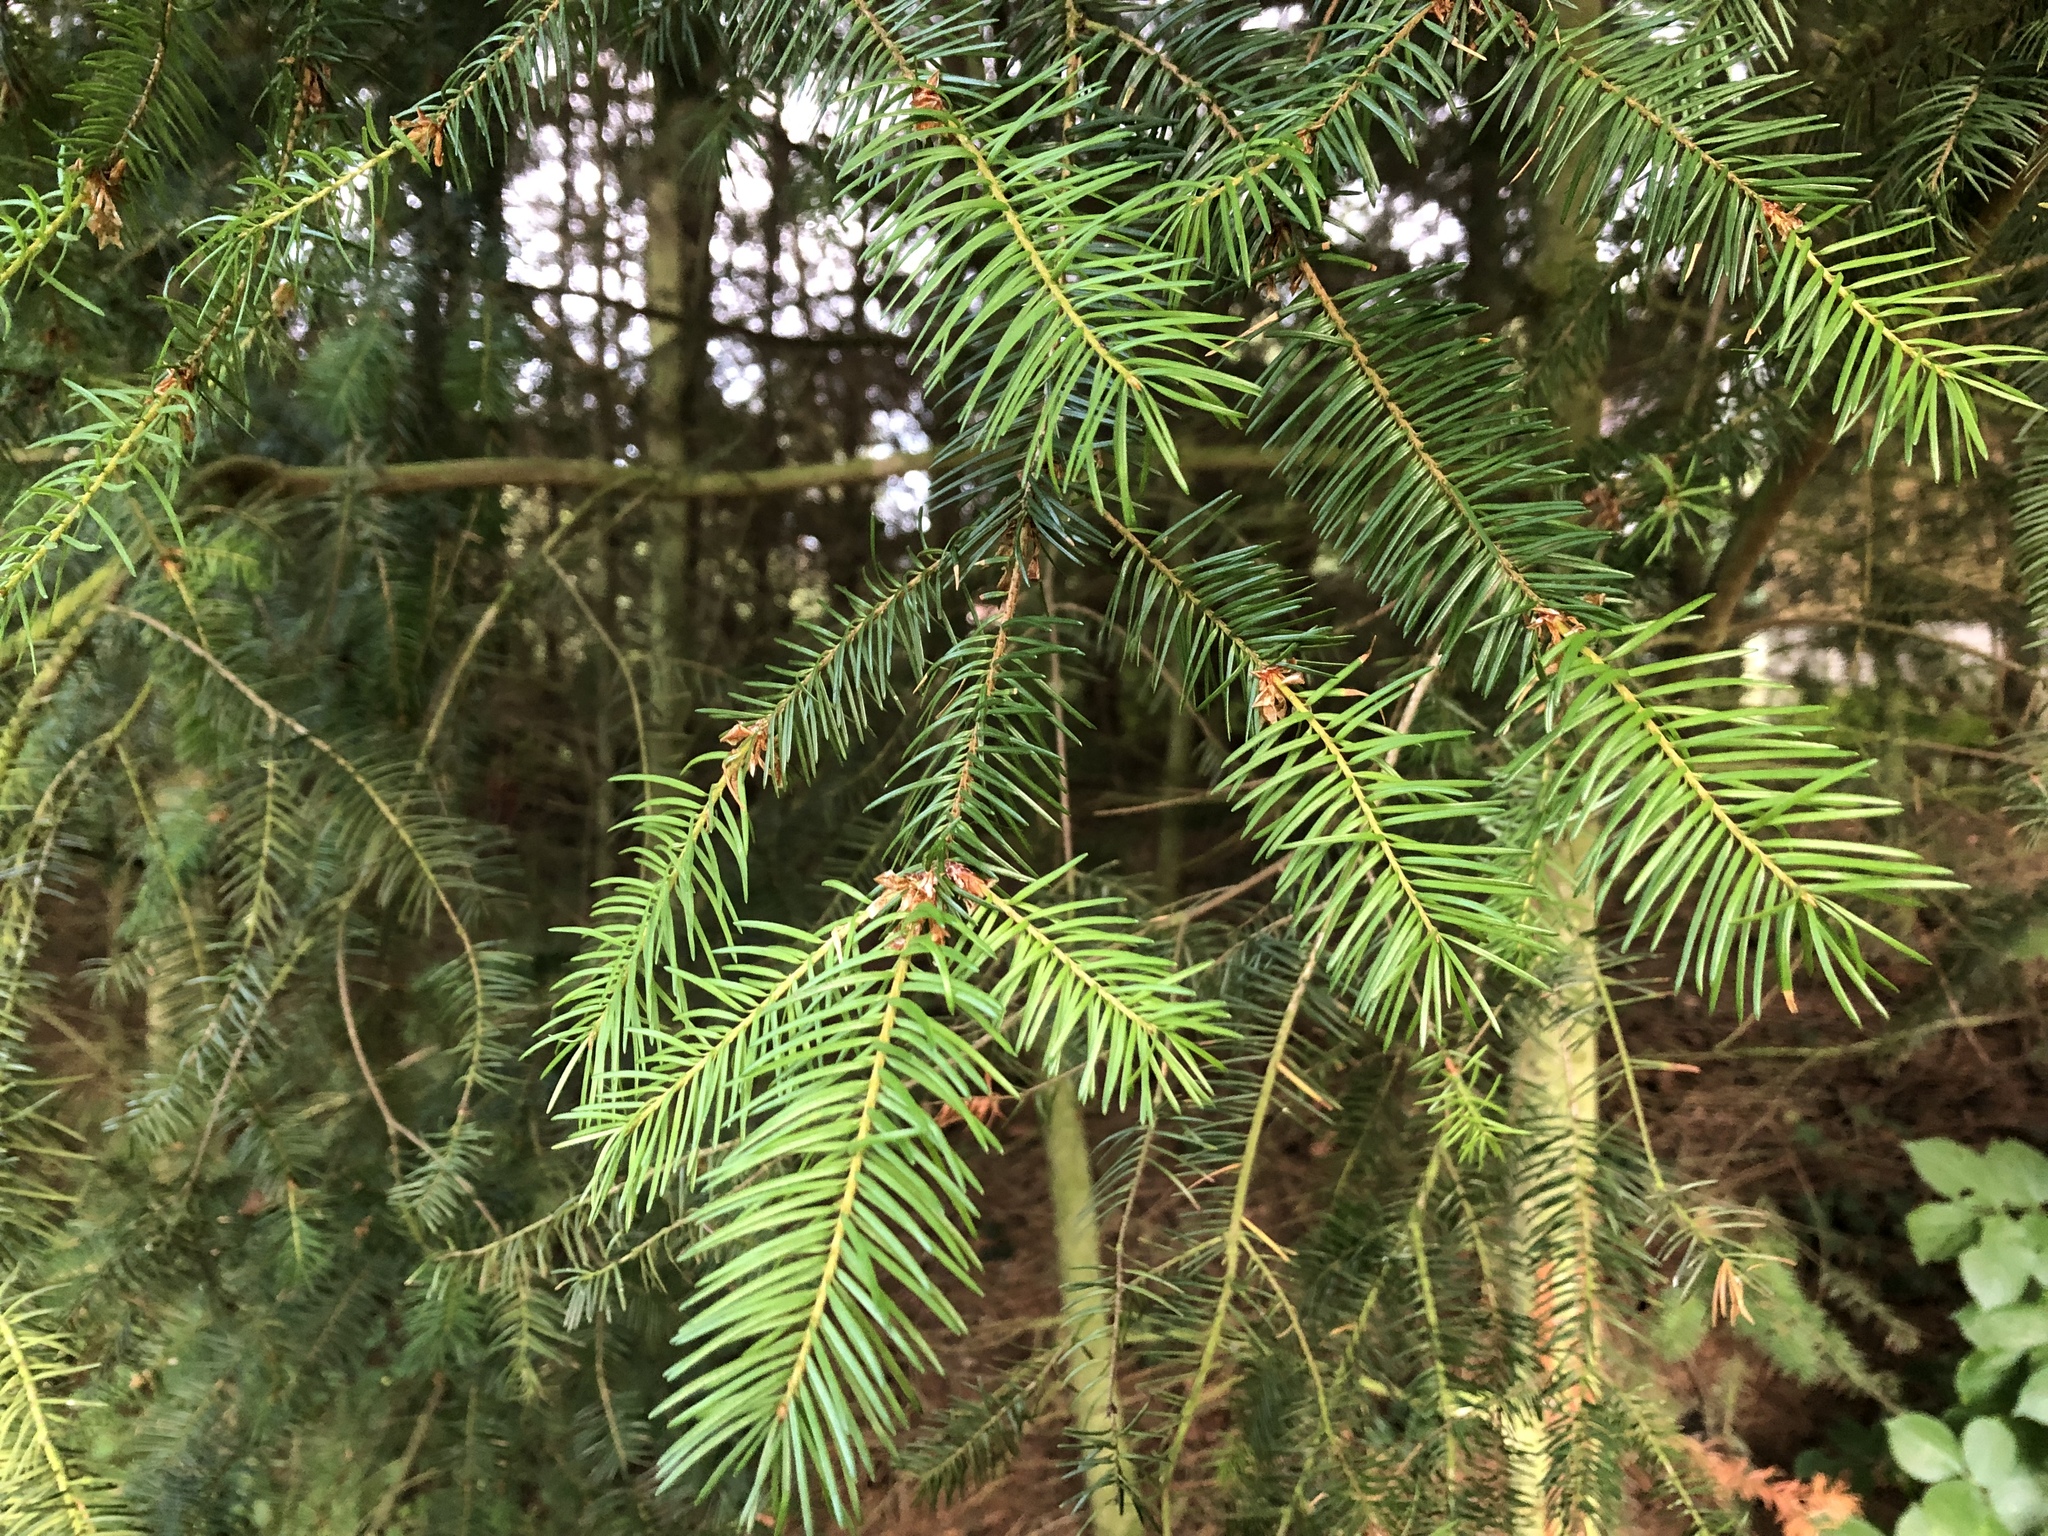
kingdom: Plantae
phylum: Tracheophyta
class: Pinopsida
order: Pinales
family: Pinaceae
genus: Abies
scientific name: Abies alba
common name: Silver fir
